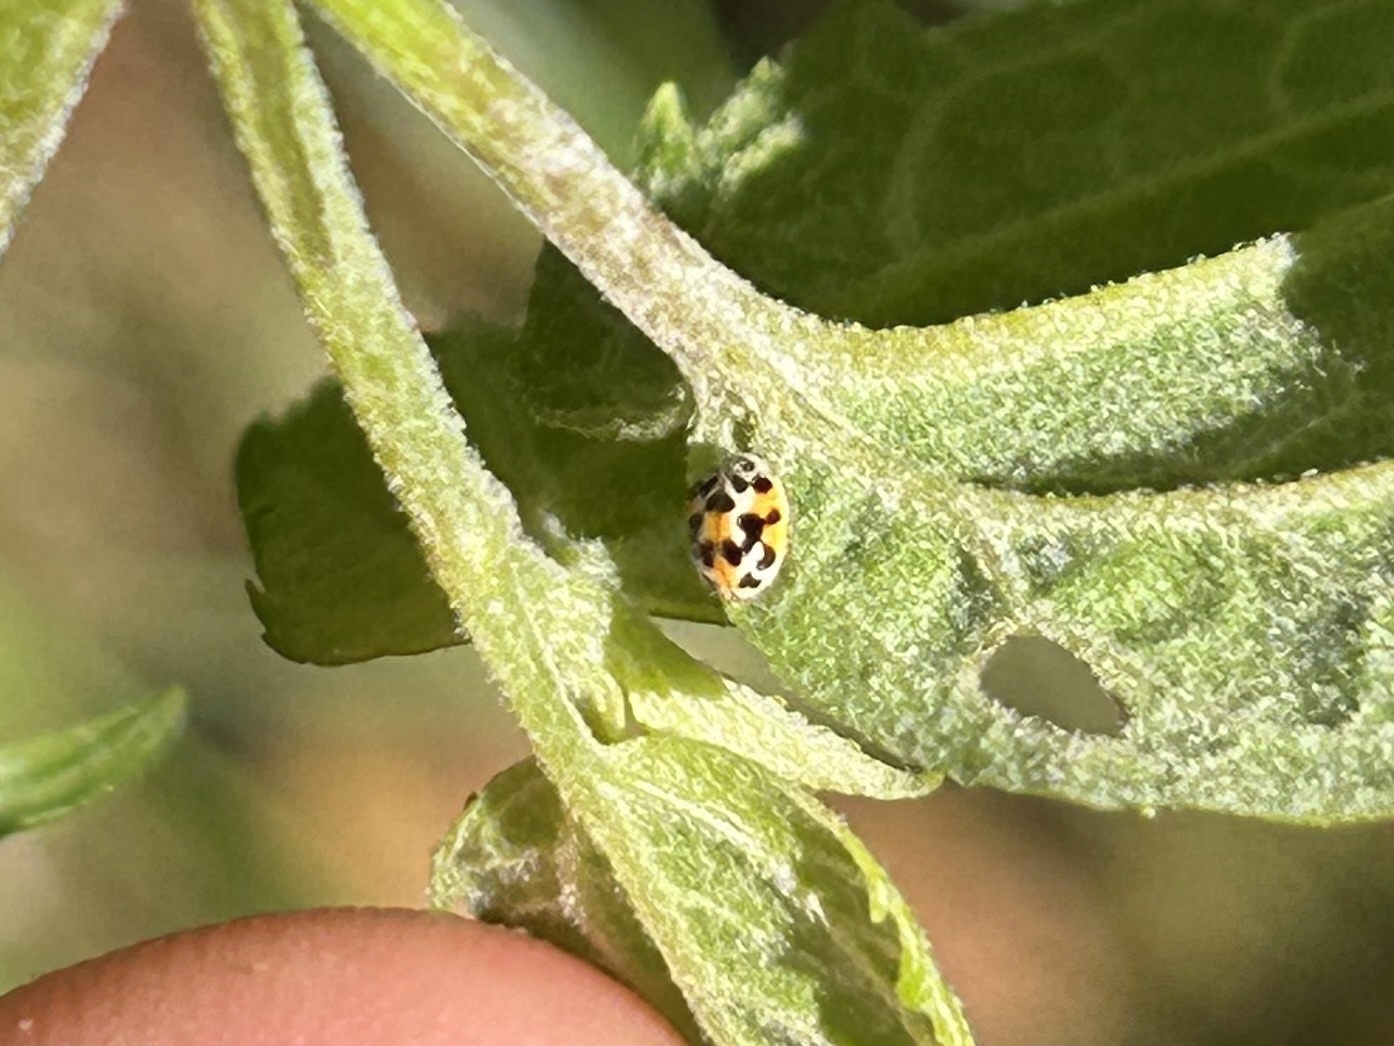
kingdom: Animalia
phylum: Arthropoda
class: Insecta
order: Coleoptera
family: Coccinellidae
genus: Psyllobora
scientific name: Psyllobora vigintimaculata
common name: Ladybird beetle
